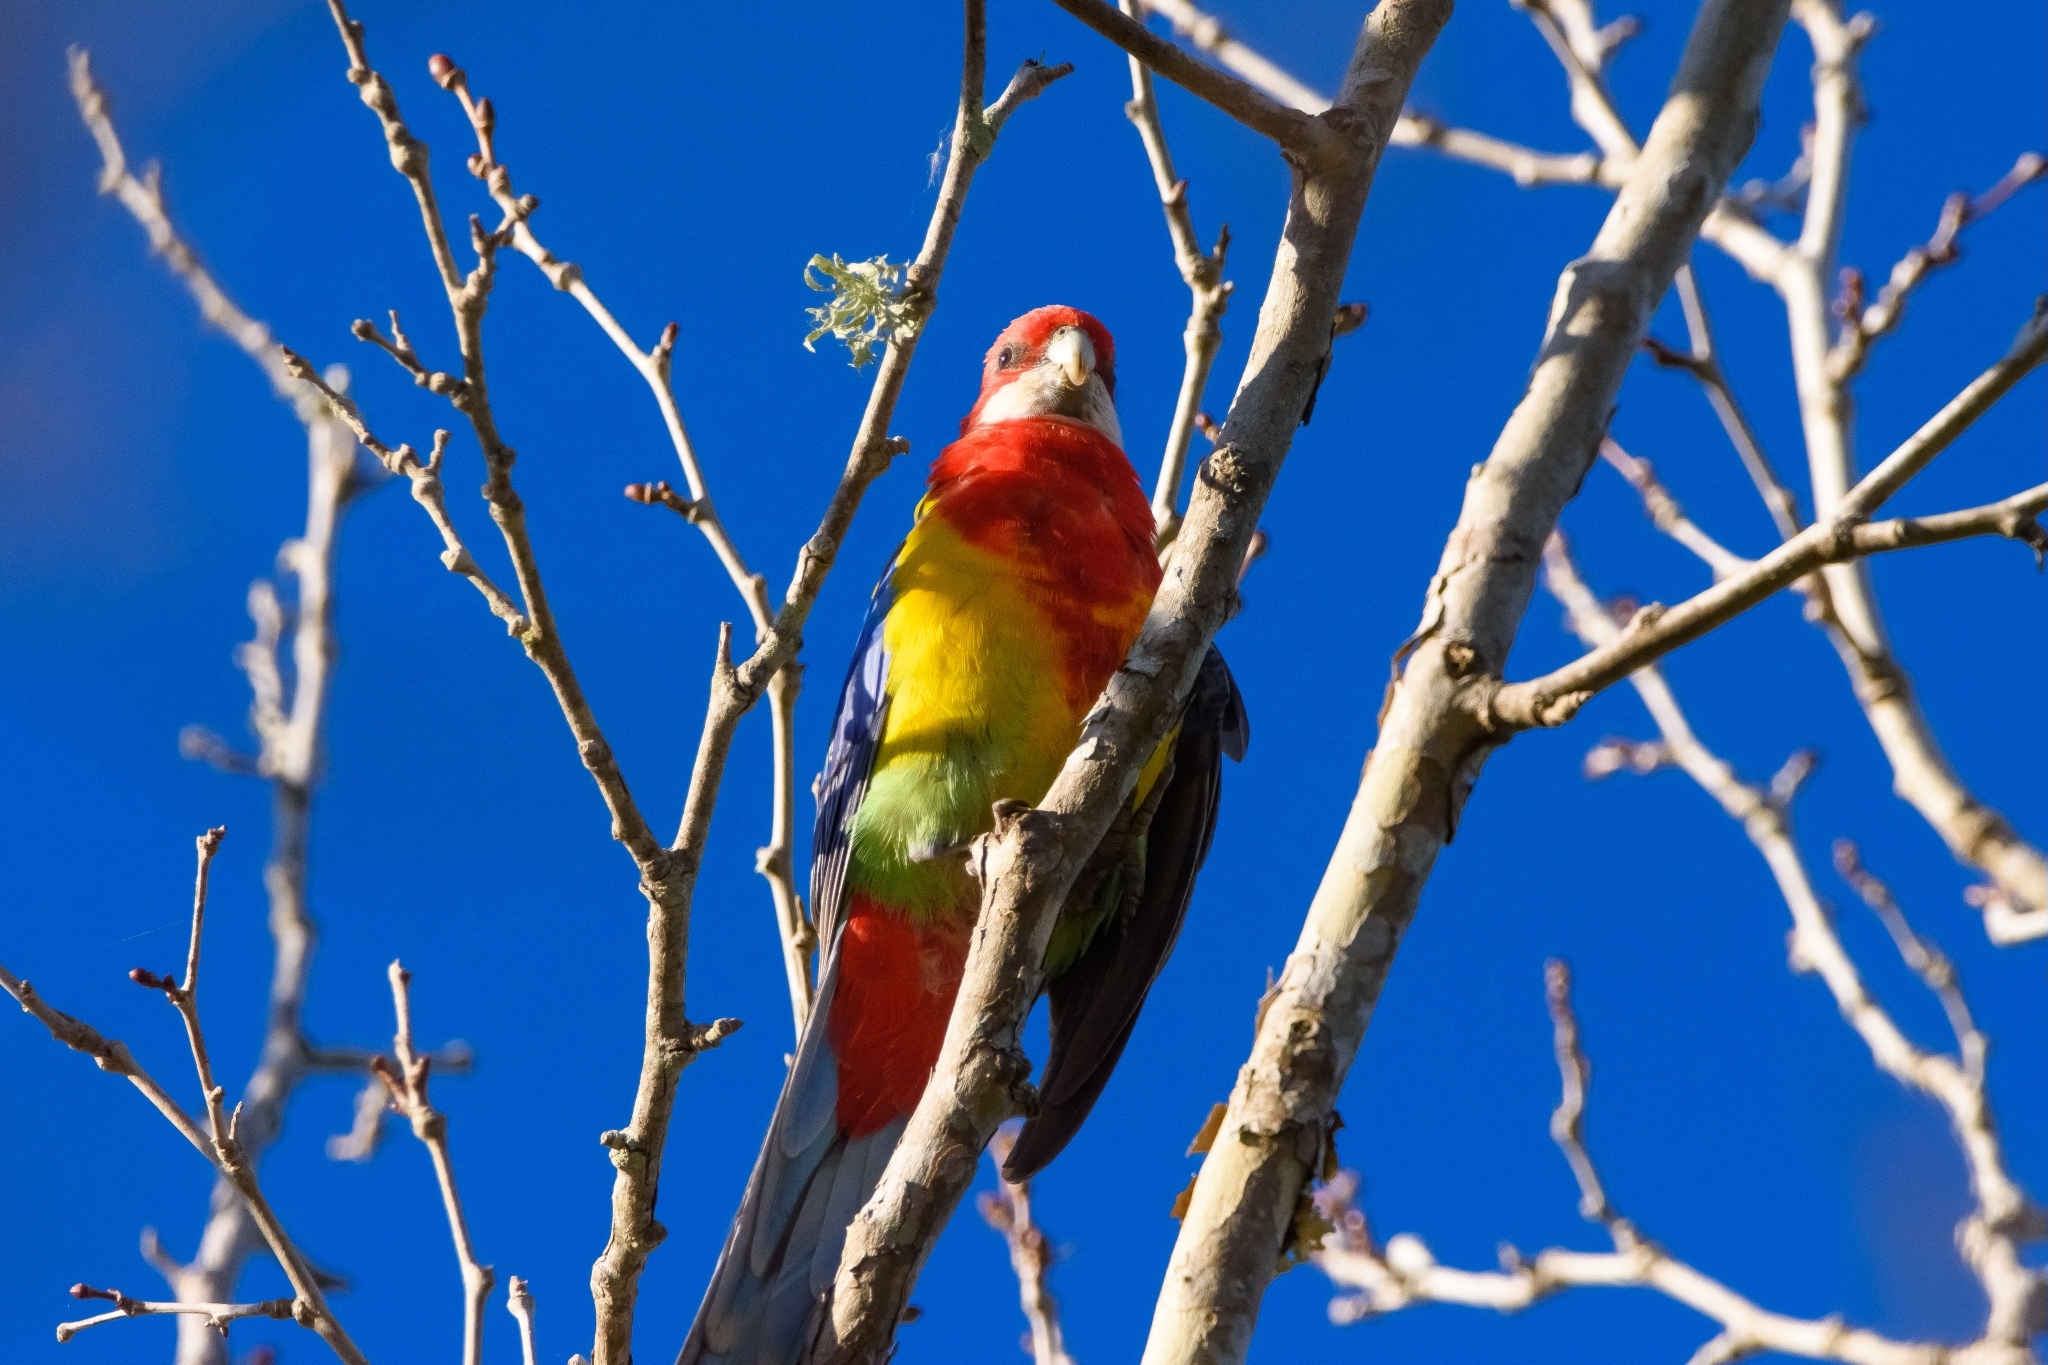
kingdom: Animalia
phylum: Chordata
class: Aves
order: Psittaciformes
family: Psittacidae
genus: Platycercus
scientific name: Platycercus eximius
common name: Eastern rosella
